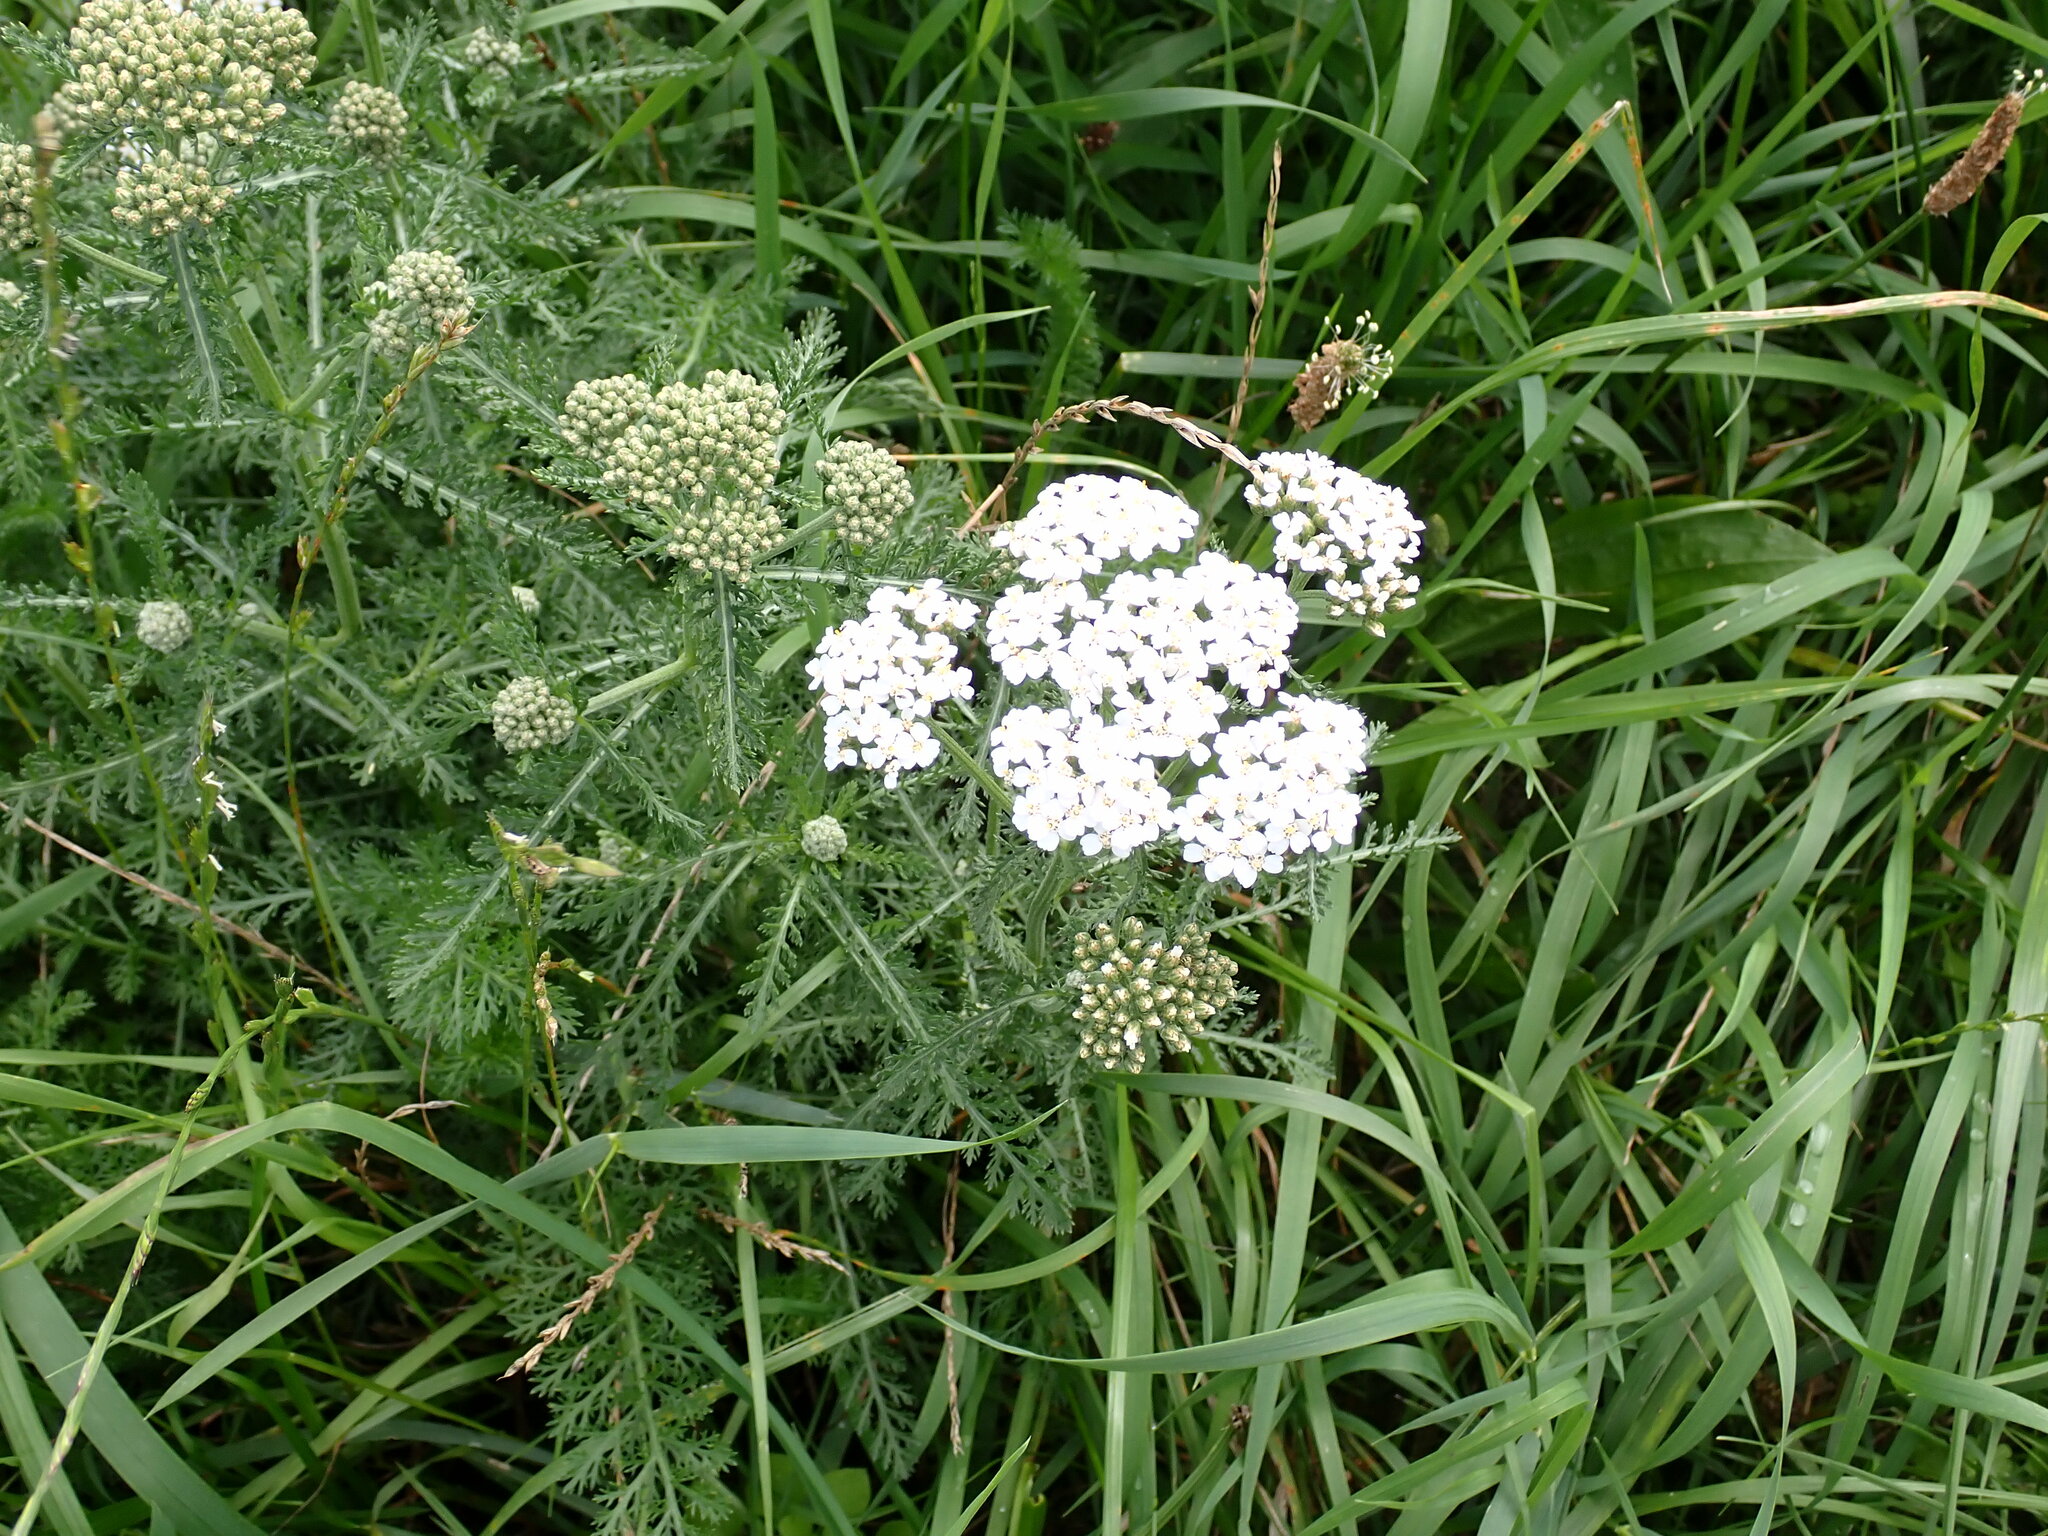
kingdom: Plantae
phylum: Tracheophyta
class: Magnoliopsida
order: Asterales
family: Asteraceae
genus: Achillea
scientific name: Achillea millefolium
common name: Yarrow
